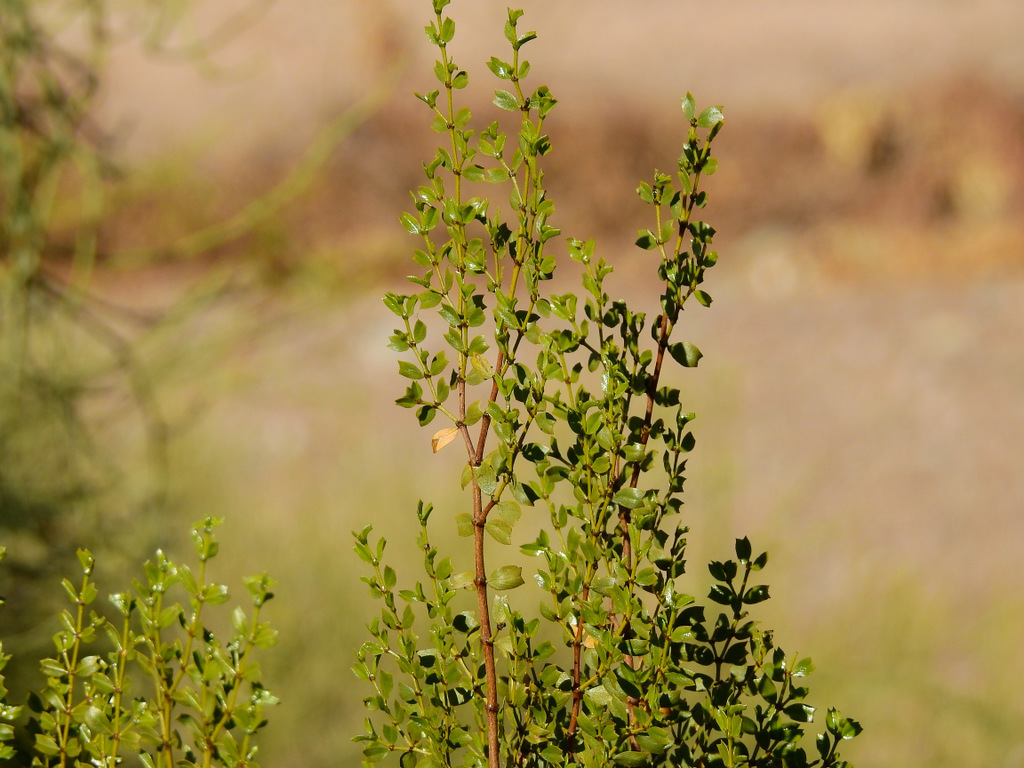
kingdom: Plantae
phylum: Tracheophyta
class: Magnoliopsida
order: Zygophyllales
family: Zygophyllaceae
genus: Larrea
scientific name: Larrea cuneifolia
